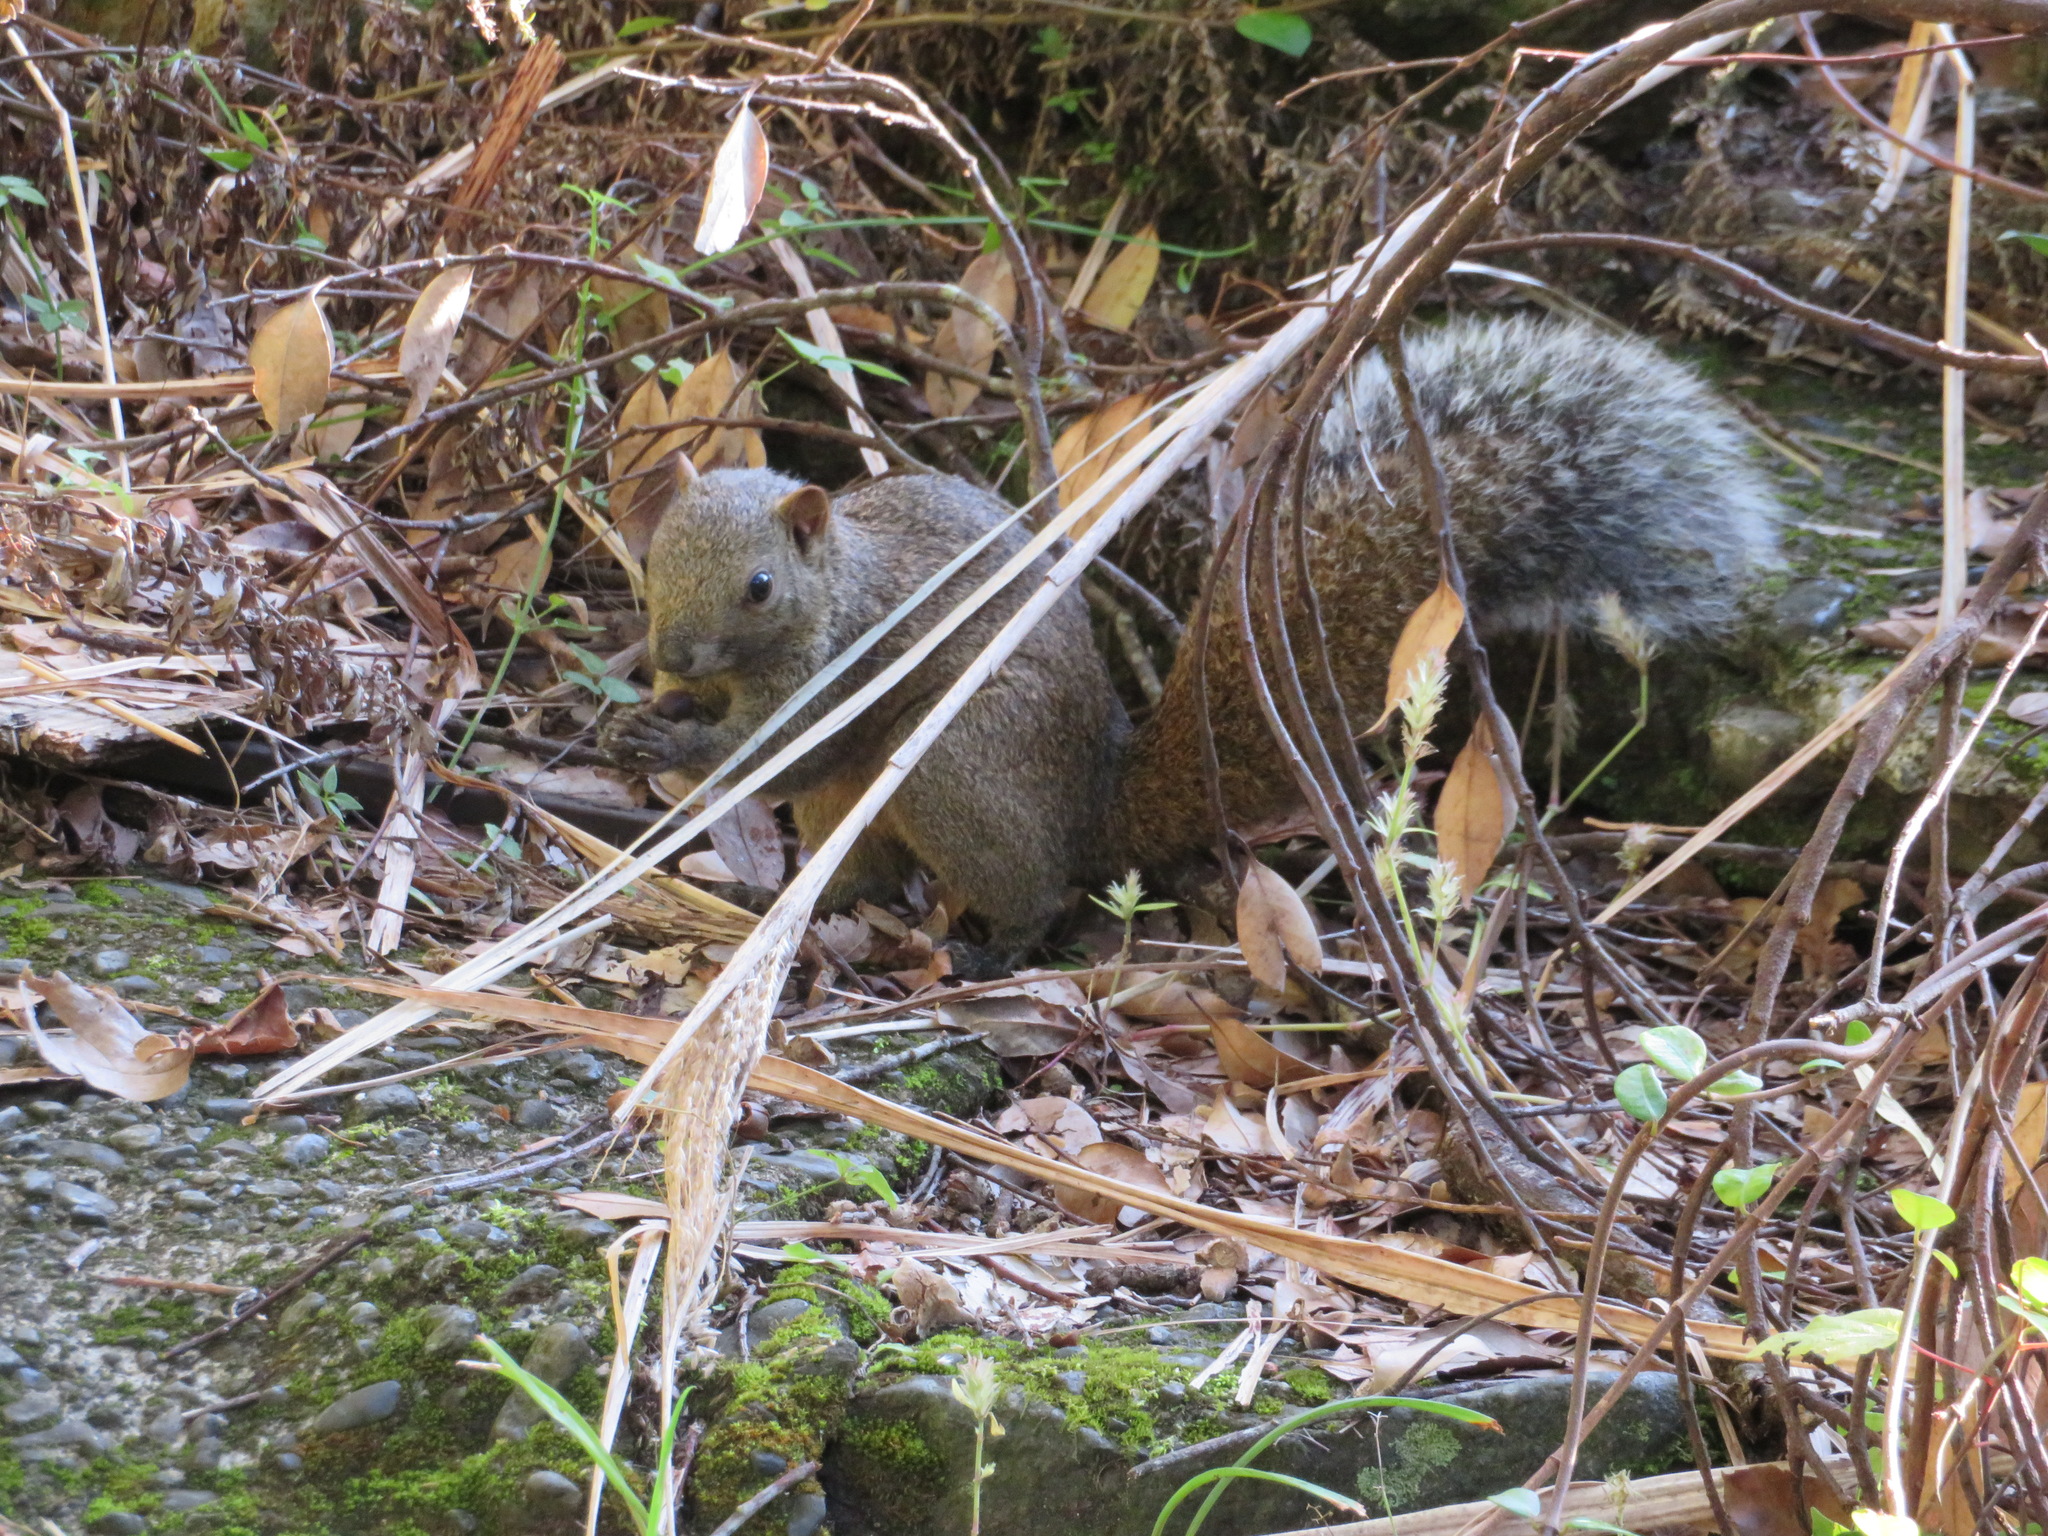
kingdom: Animalia
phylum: Chordata
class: Mammalia
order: Rodentia
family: Sciuridae
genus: Callosciurus
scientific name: Callosciurus erythraeus
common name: Pallas's squirrel
